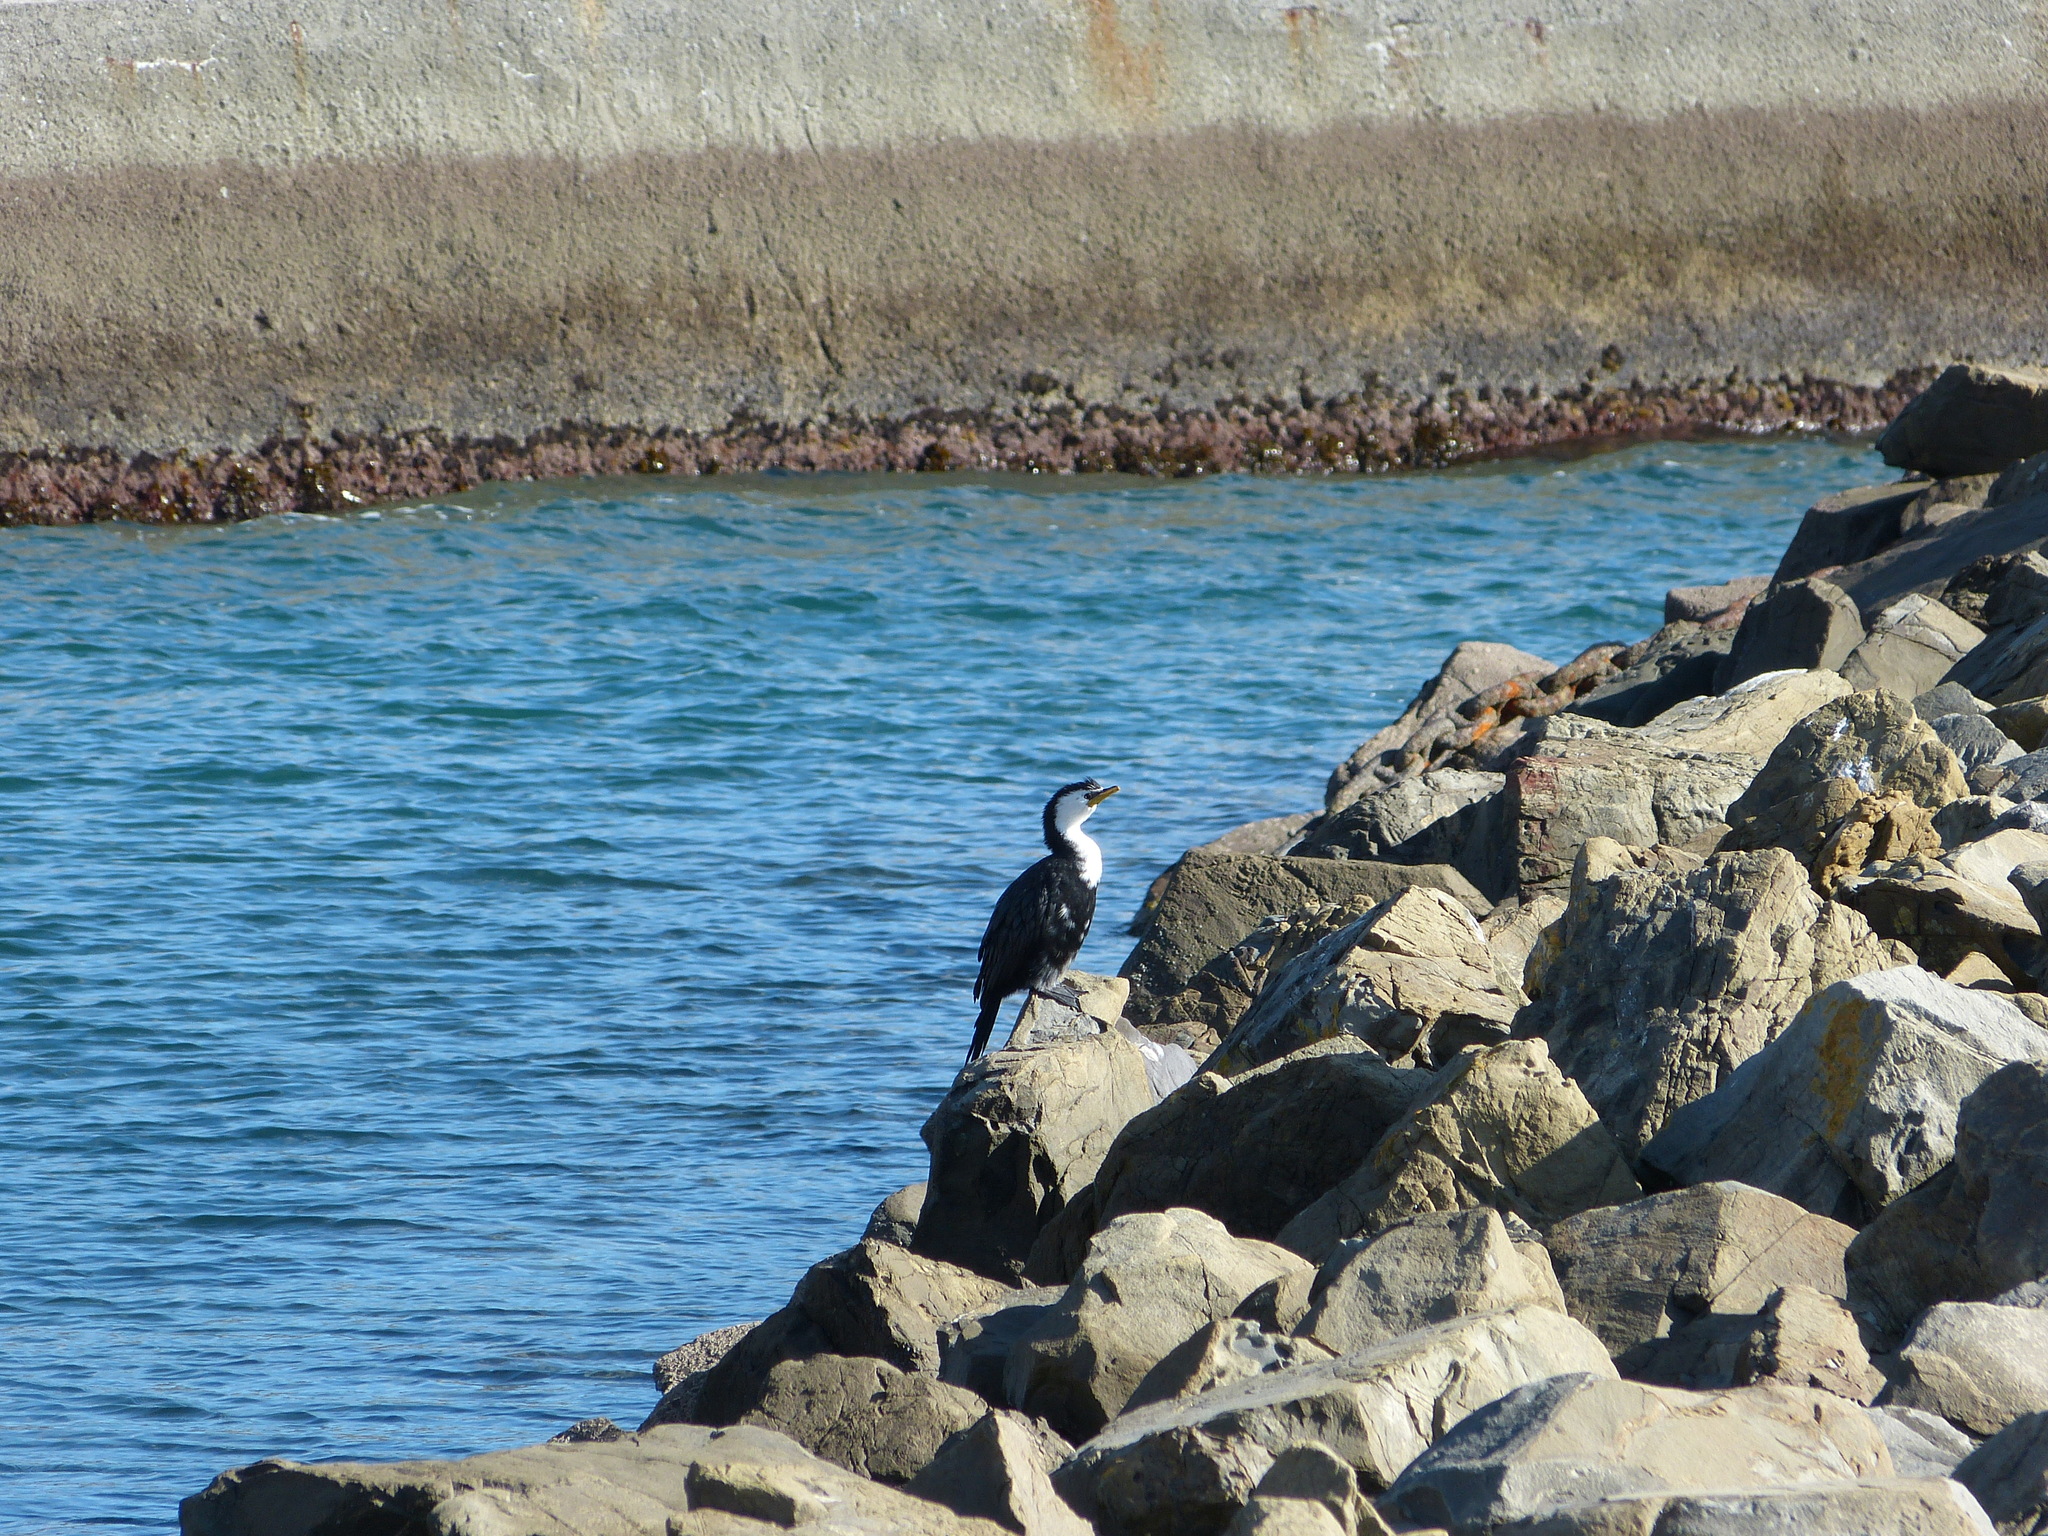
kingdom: Animalia
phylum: Chordata
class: Aves
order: Suliformes
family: Phalacrocoracidae
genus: Microcarbo
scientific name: Microcarbo melanoleucos
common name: Little pied cormorant
